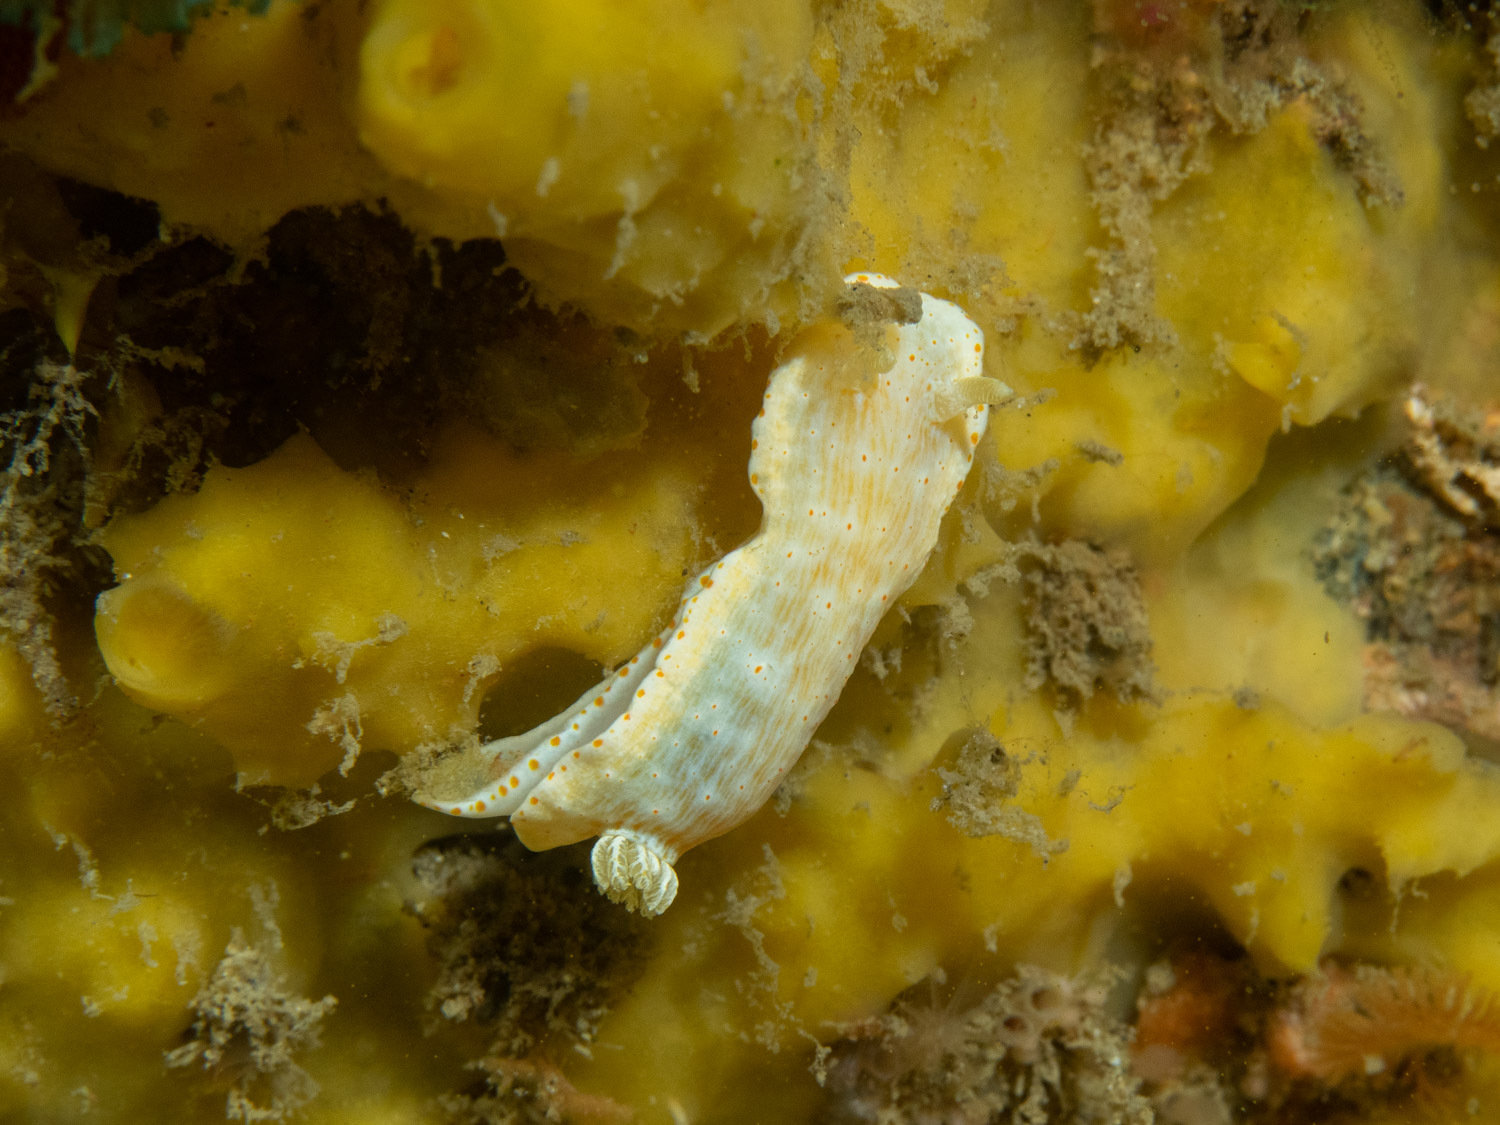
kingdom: Animalia
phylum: Mollusca
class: Gastropoda
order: Nudibranchia
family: Chromodorididae
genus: Goniobranchus
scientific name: Goniobranchus epicurius
